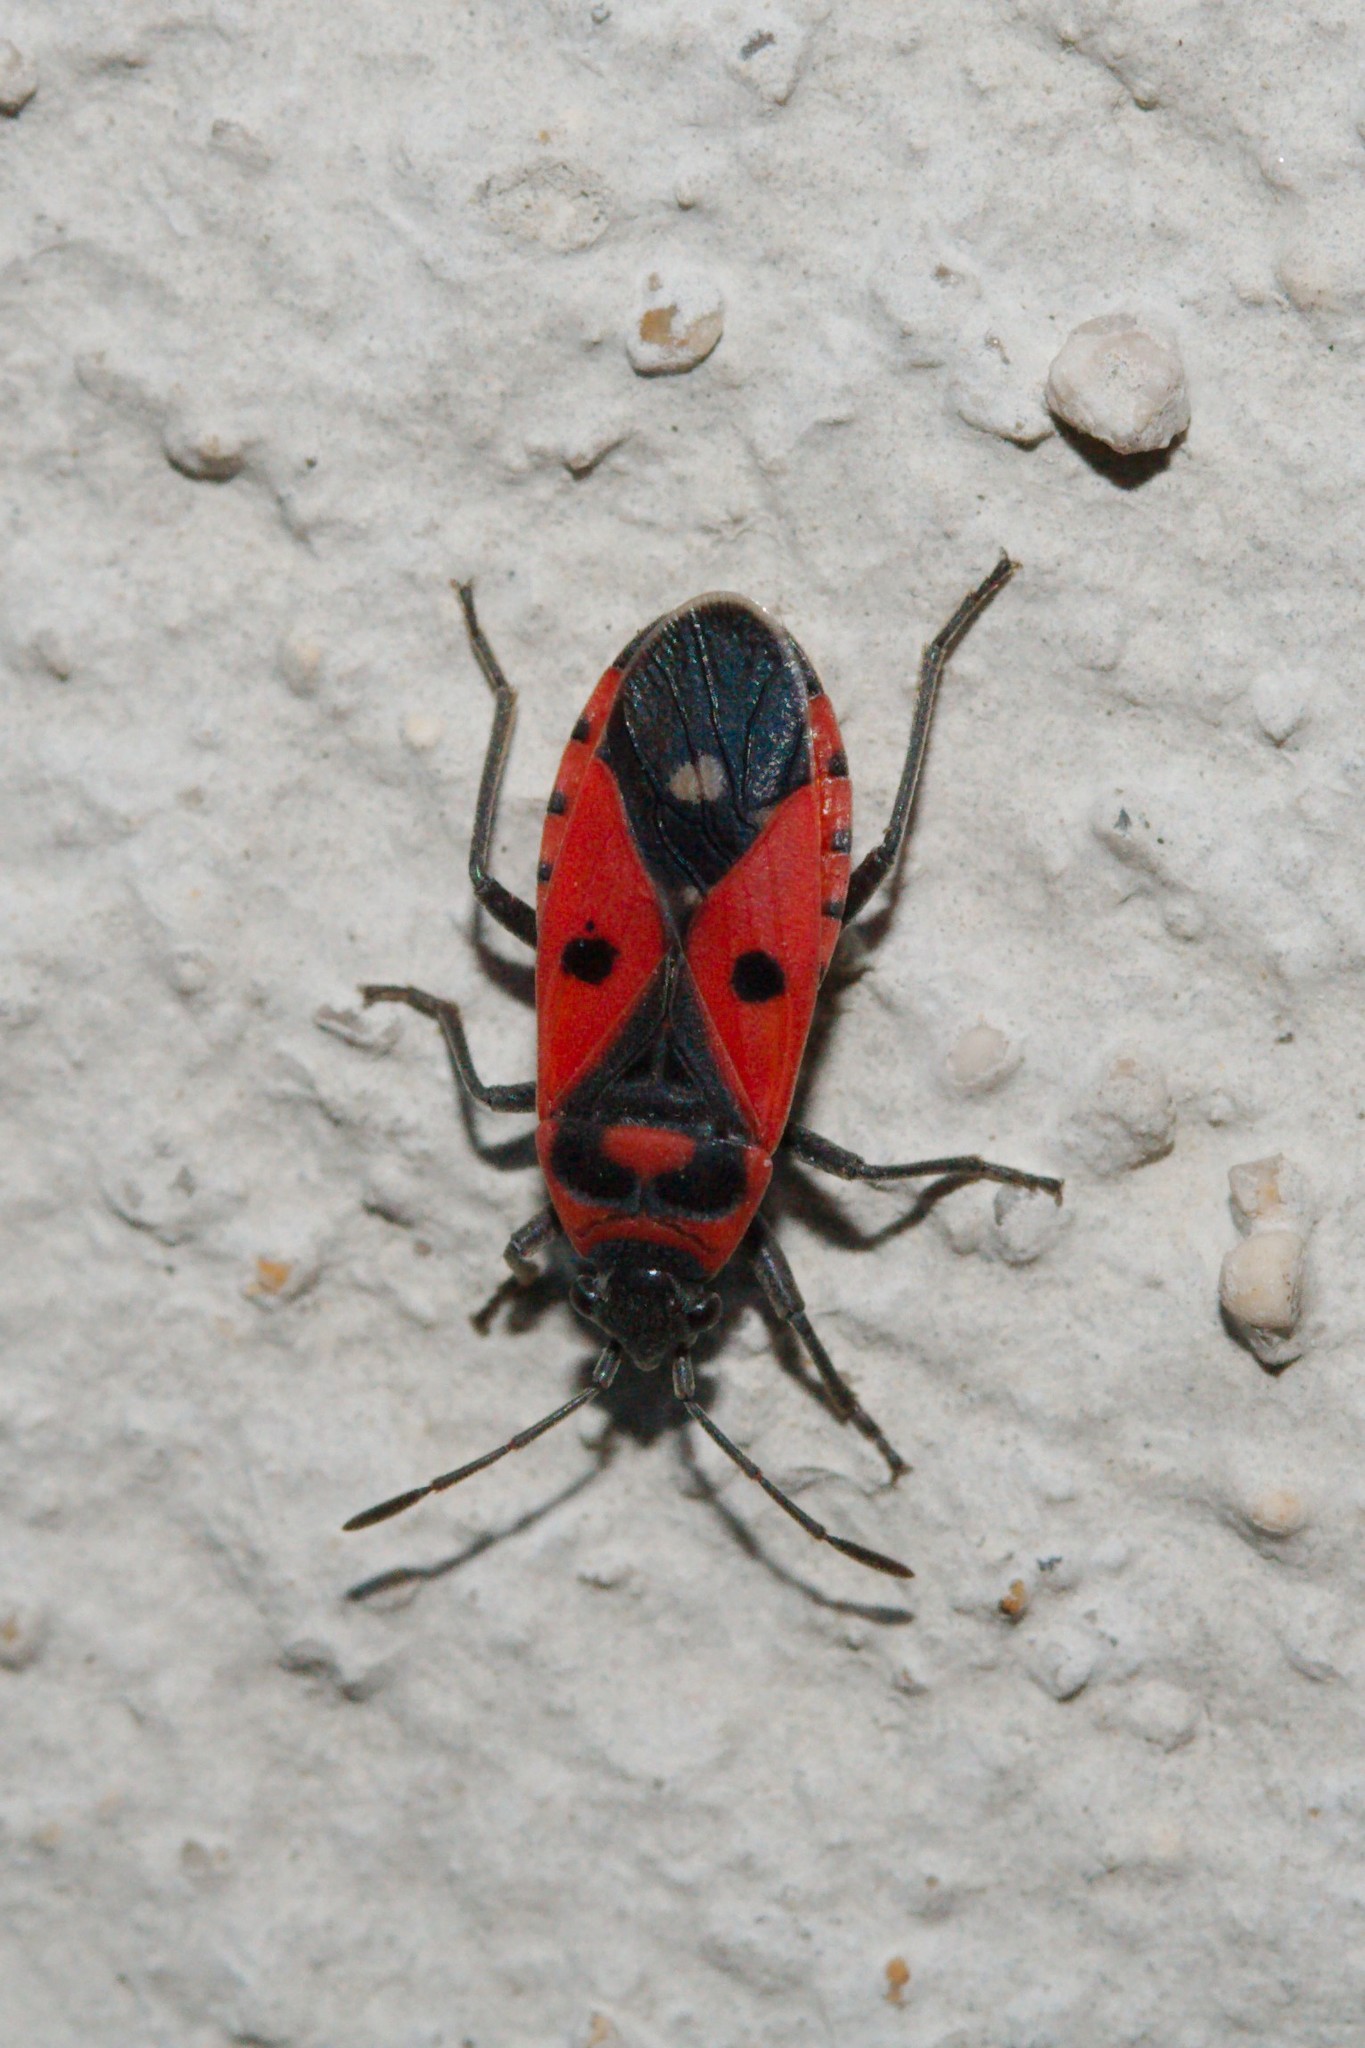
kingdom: Animalia
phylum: Arthropoda
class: Insecta
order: Hemiptera
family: Lygaeidae
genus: Melanocoryphus
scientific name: Melanocoryphus albomaculatus
